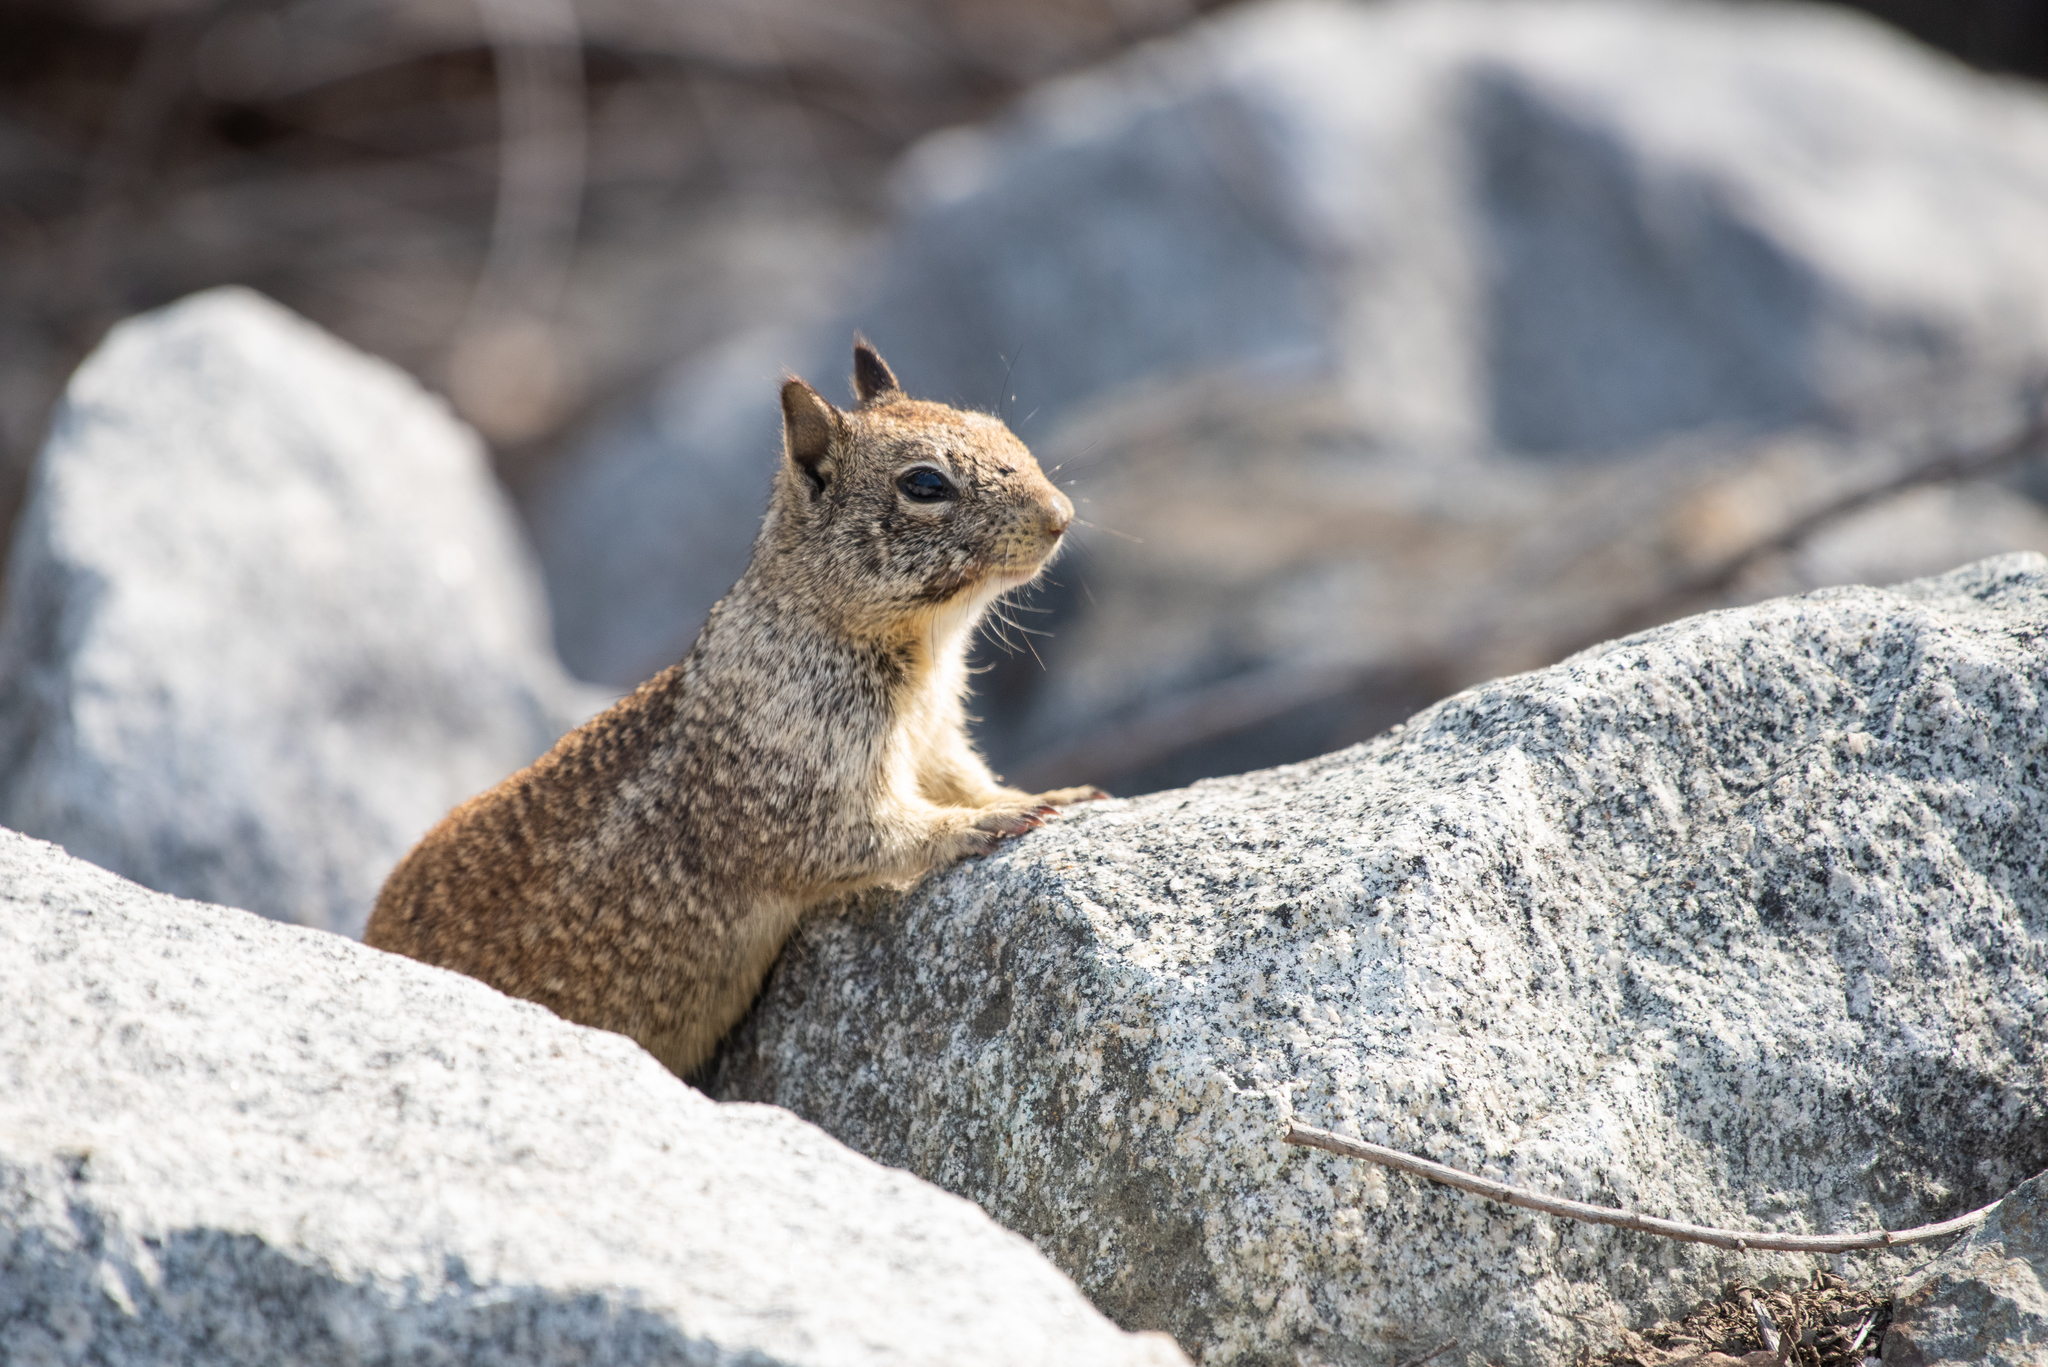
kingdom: Animalia
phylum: Chordata
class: Mammalia
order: Rodentia
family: Sciuridae
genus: Otospermophilus
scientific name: Otospermophilus beecheyi
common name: California ground squirrel
